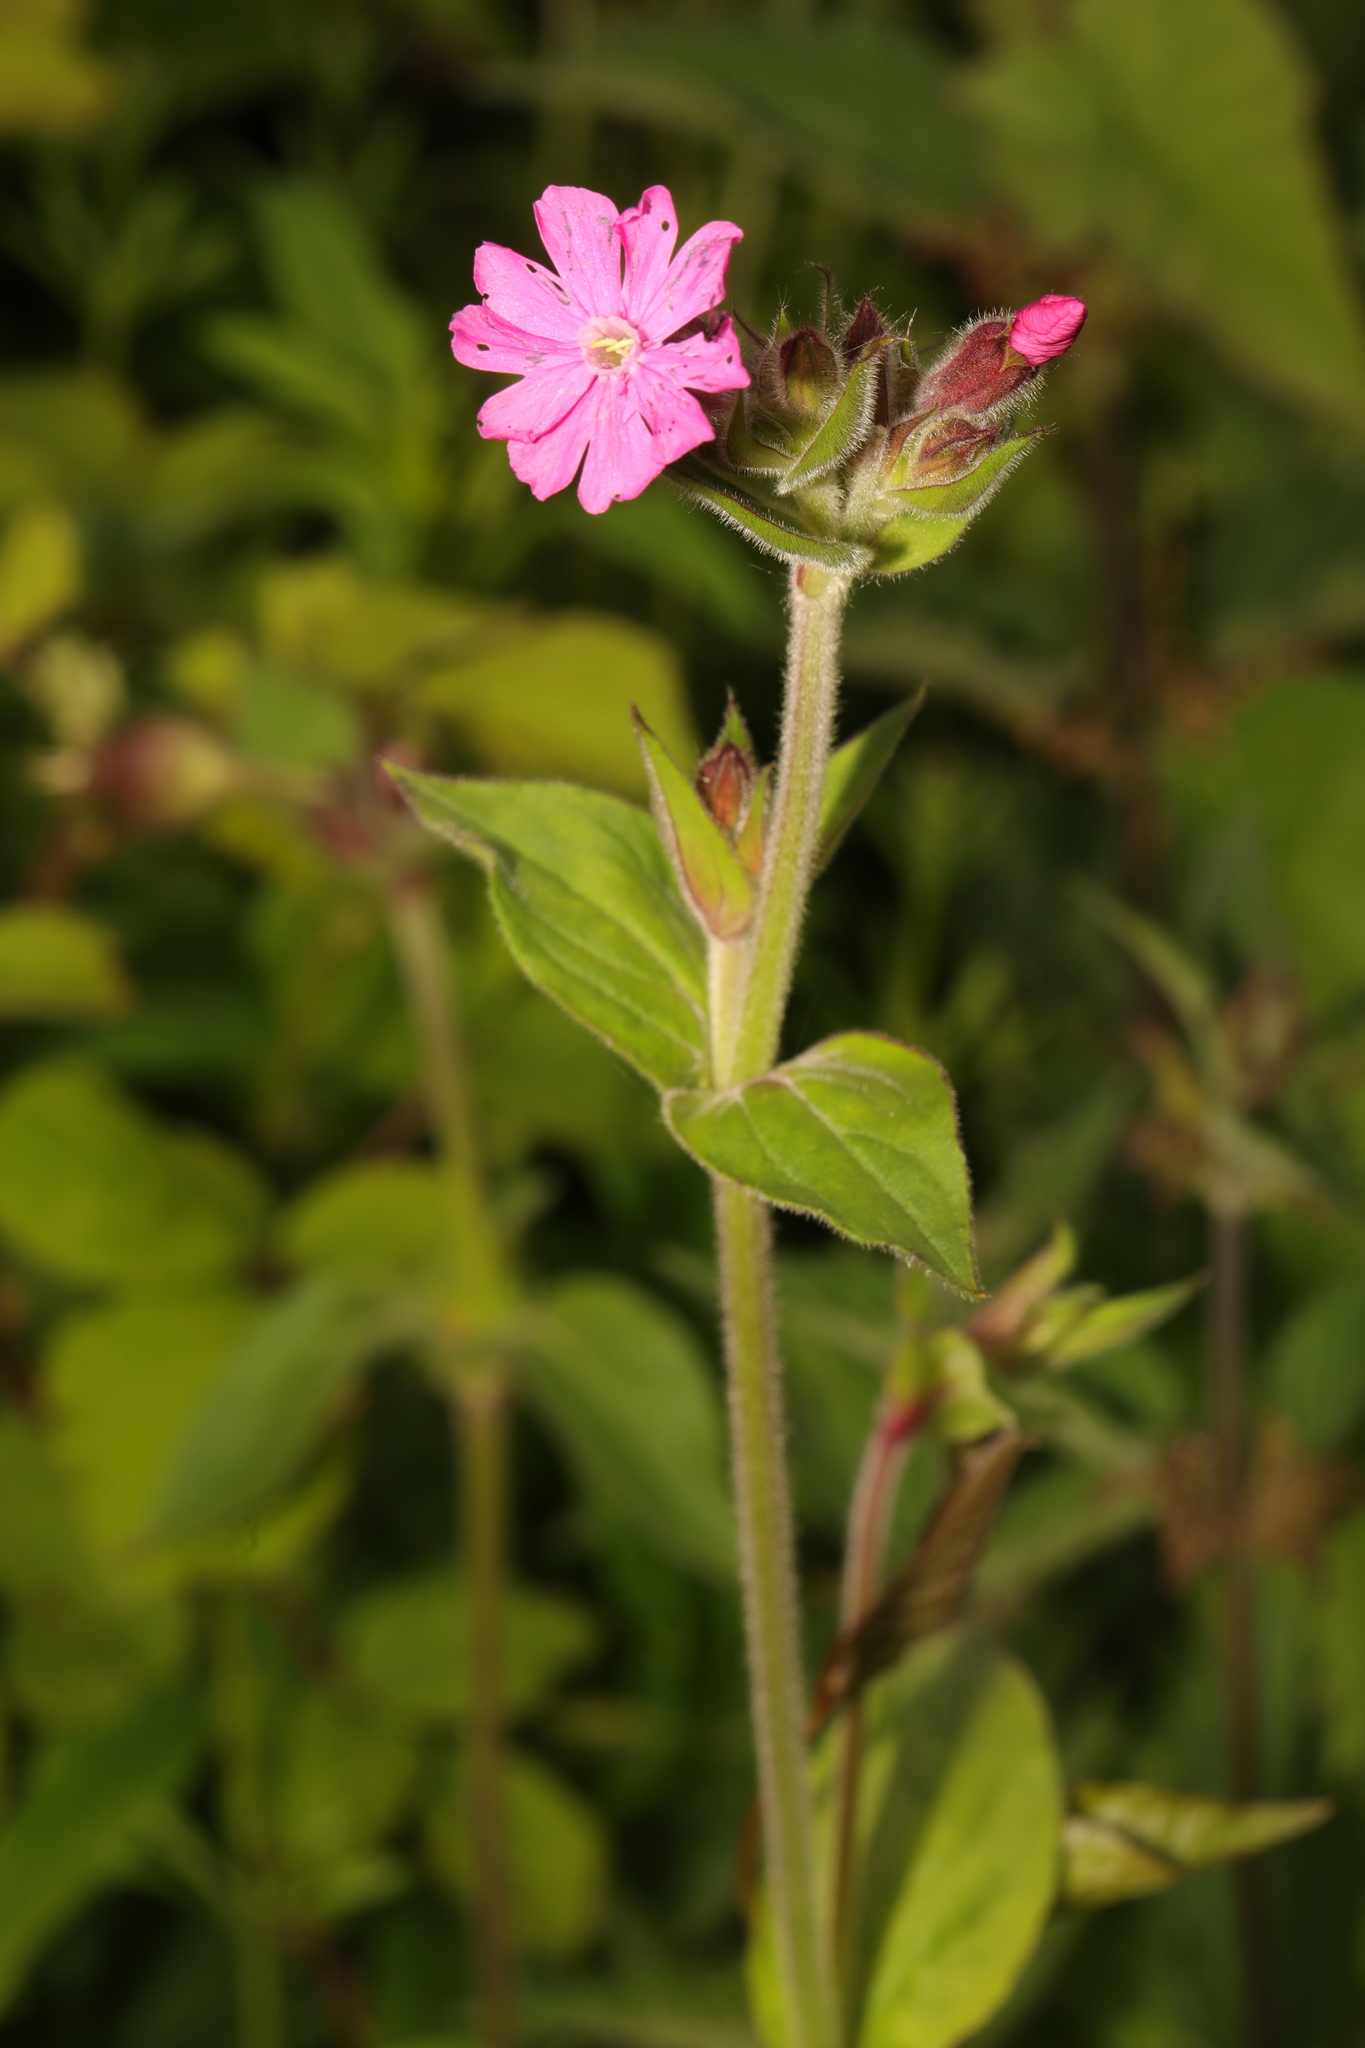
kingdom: Plantae
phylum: Tracheophyta
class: Magnoliopsida
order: Caryophyllales
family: Caryophyllaceae
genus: Silene
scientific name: Silene dioica
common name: Red campion
